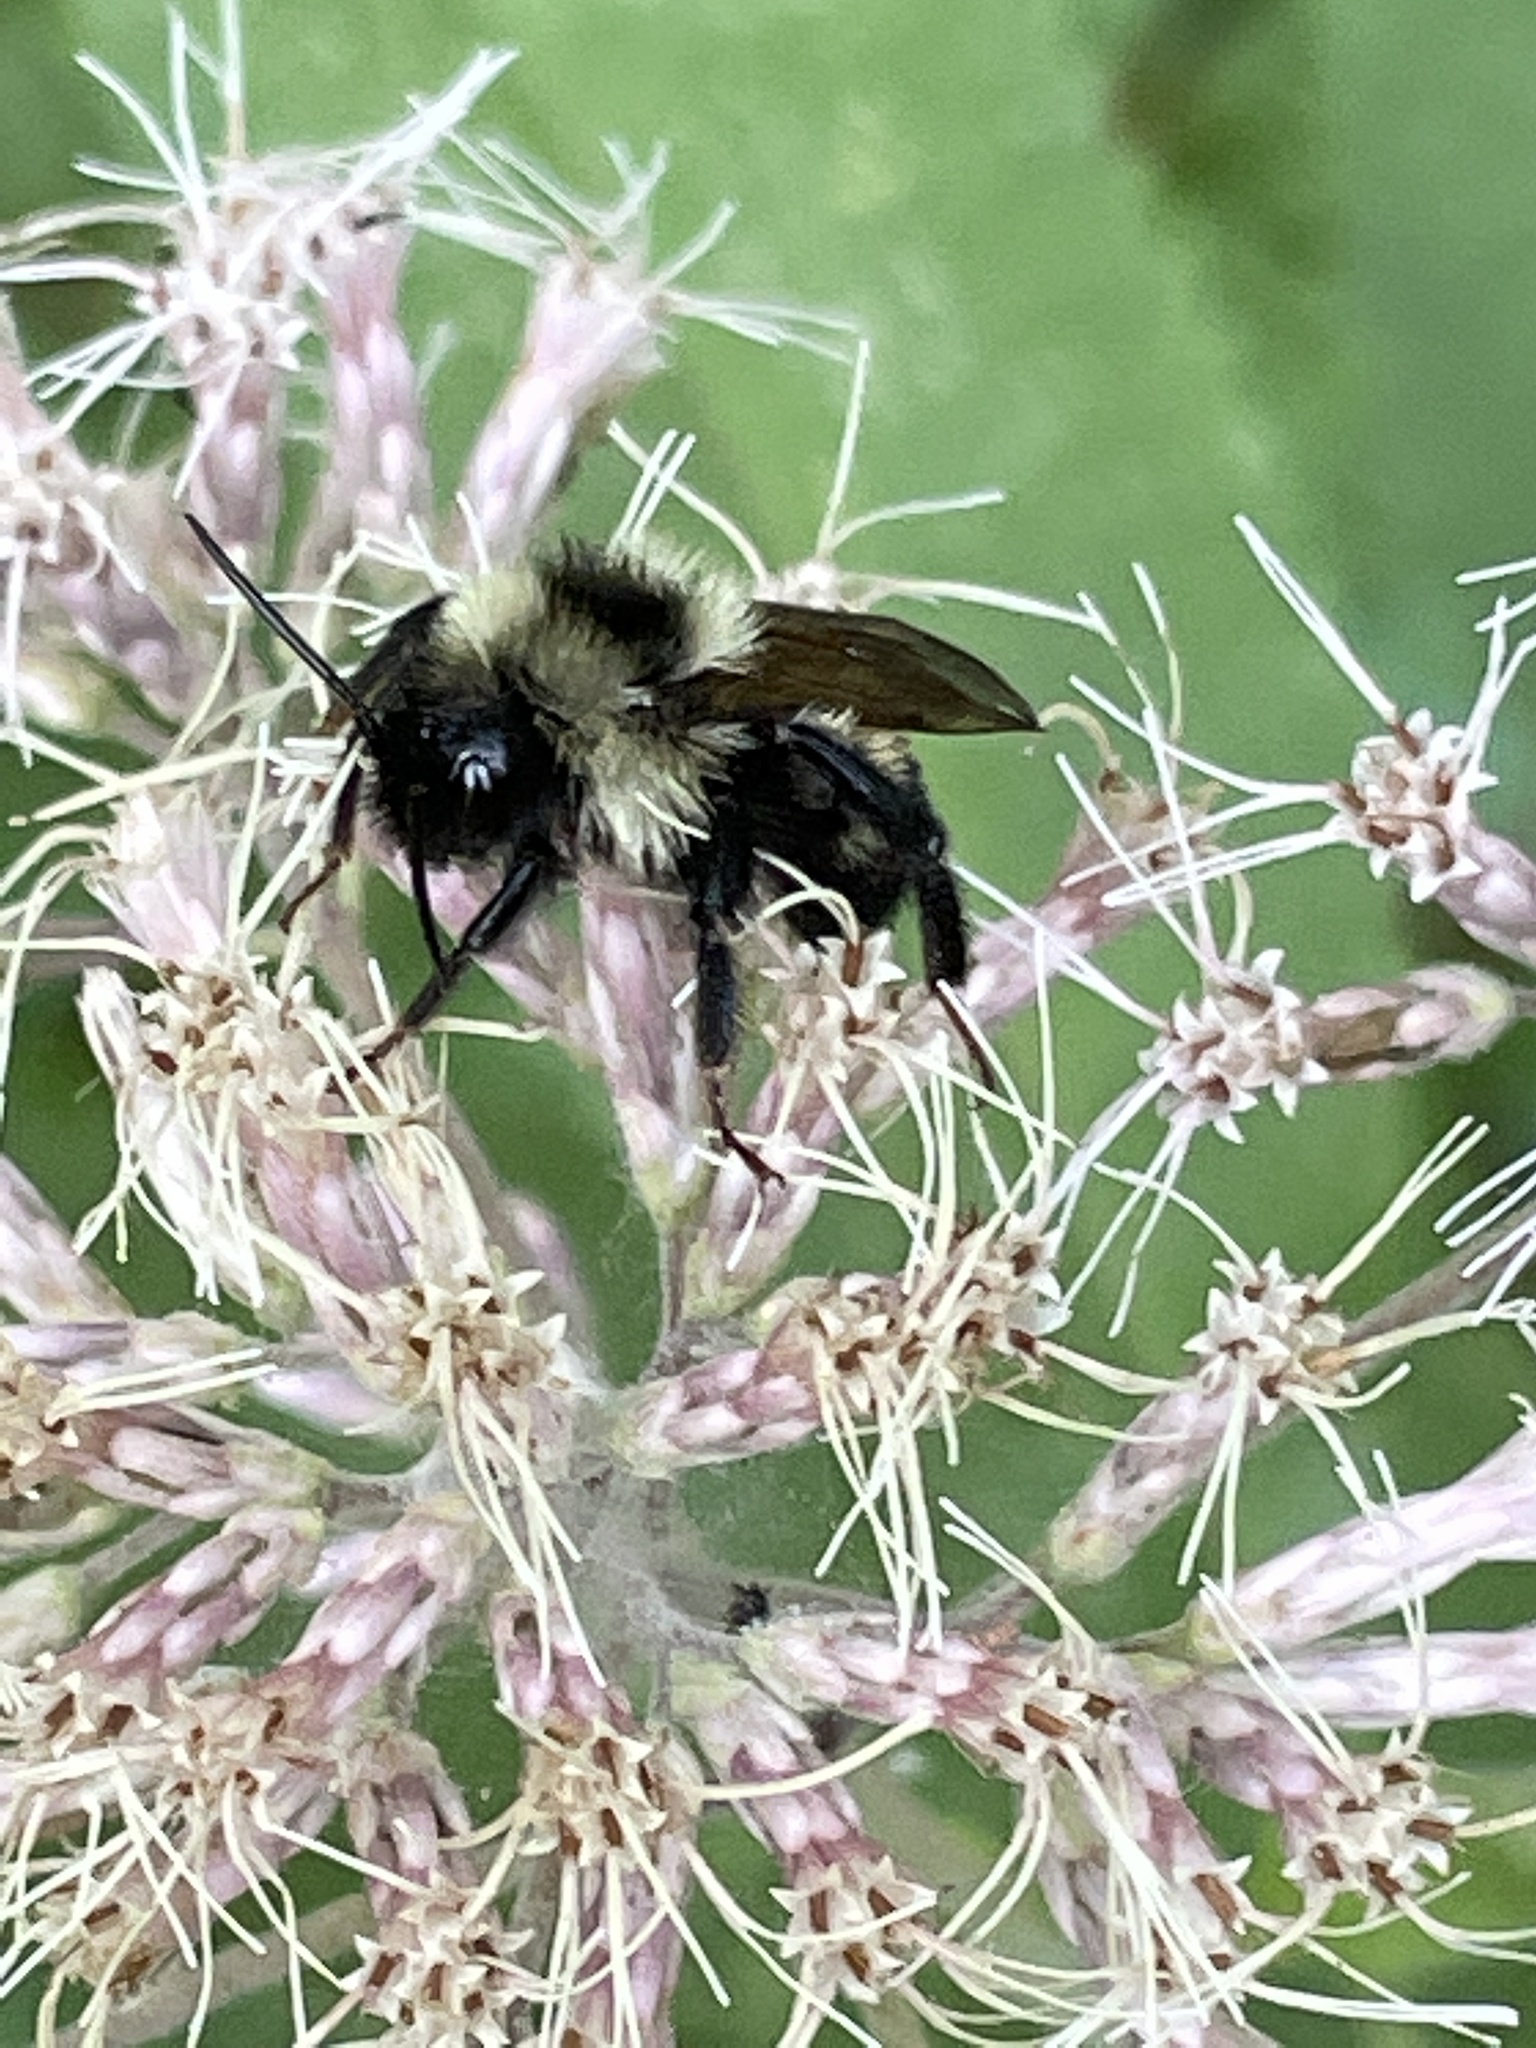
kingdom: Animalia
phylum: Arthropoda
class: Insecta
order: Hymenoptera
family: Apidae
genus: Bombus
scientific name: Bombus citrinus
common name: Lemon cuckoo bumble bee
